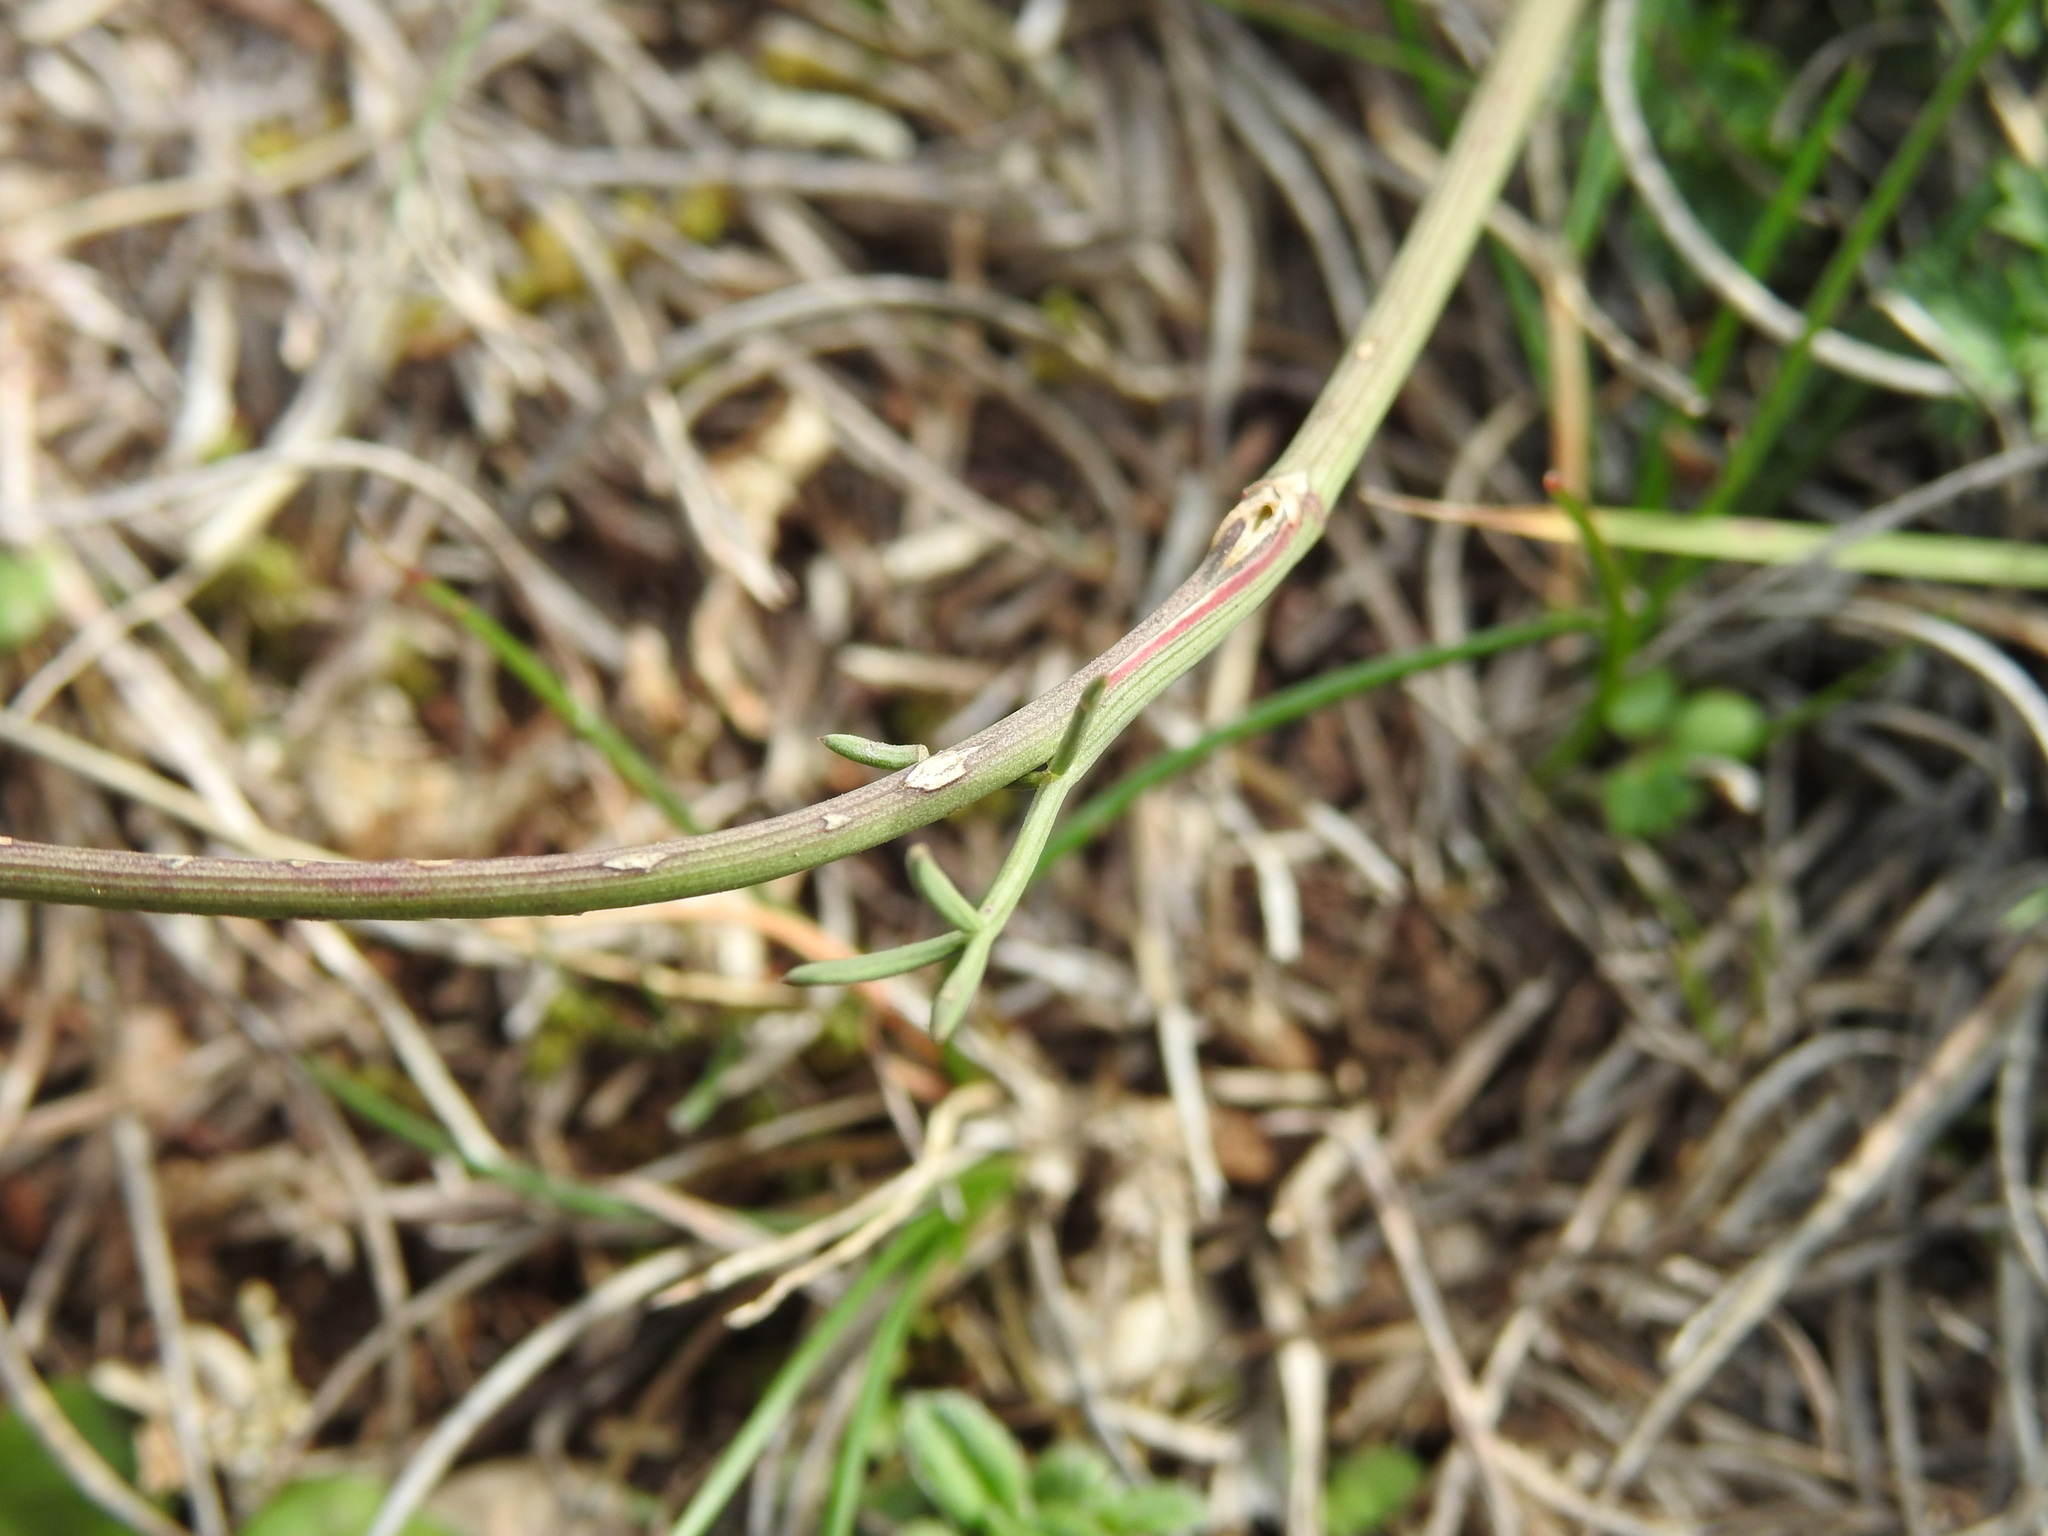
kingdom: Plantae
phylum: Tracheophyta
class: Magnoliopsida
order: Apiales
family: Apiaceae
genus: Seseli
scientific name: Seseli montanum
